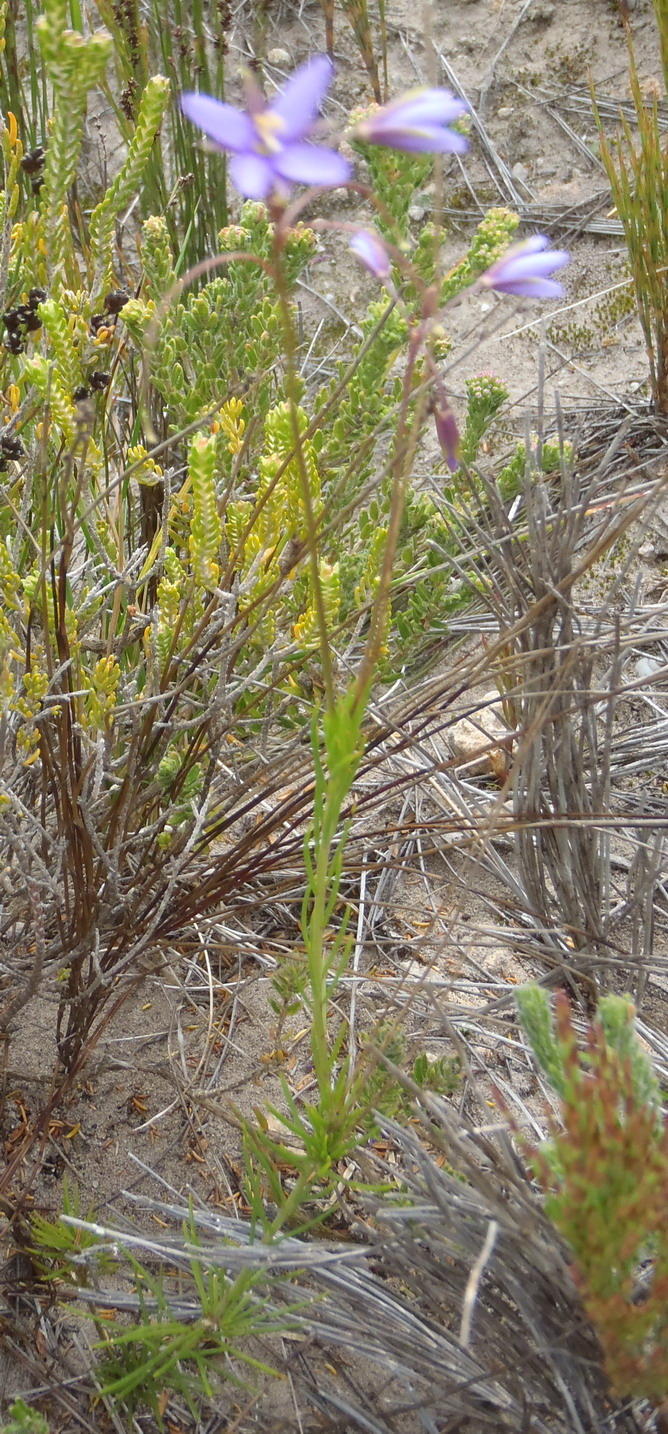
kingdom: Plantae
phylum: Tracheophyta
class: Magnoliopsida
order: Brassicales
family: Brassicaceae
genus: Heliophila
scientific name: Heliophila subulata
